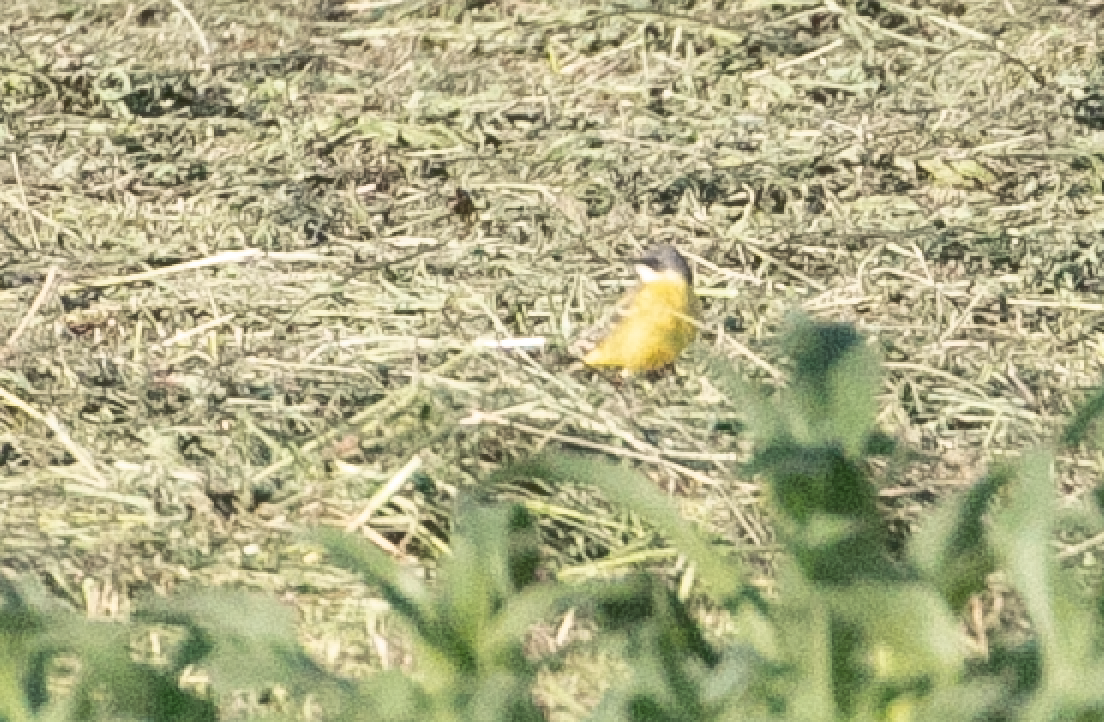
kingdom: Animalia
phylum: Chordata
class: Aves
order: Passeriformes
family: Motacillidae
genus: Motacilla
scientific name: Motacilla flava
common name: Western yellow wagtail
